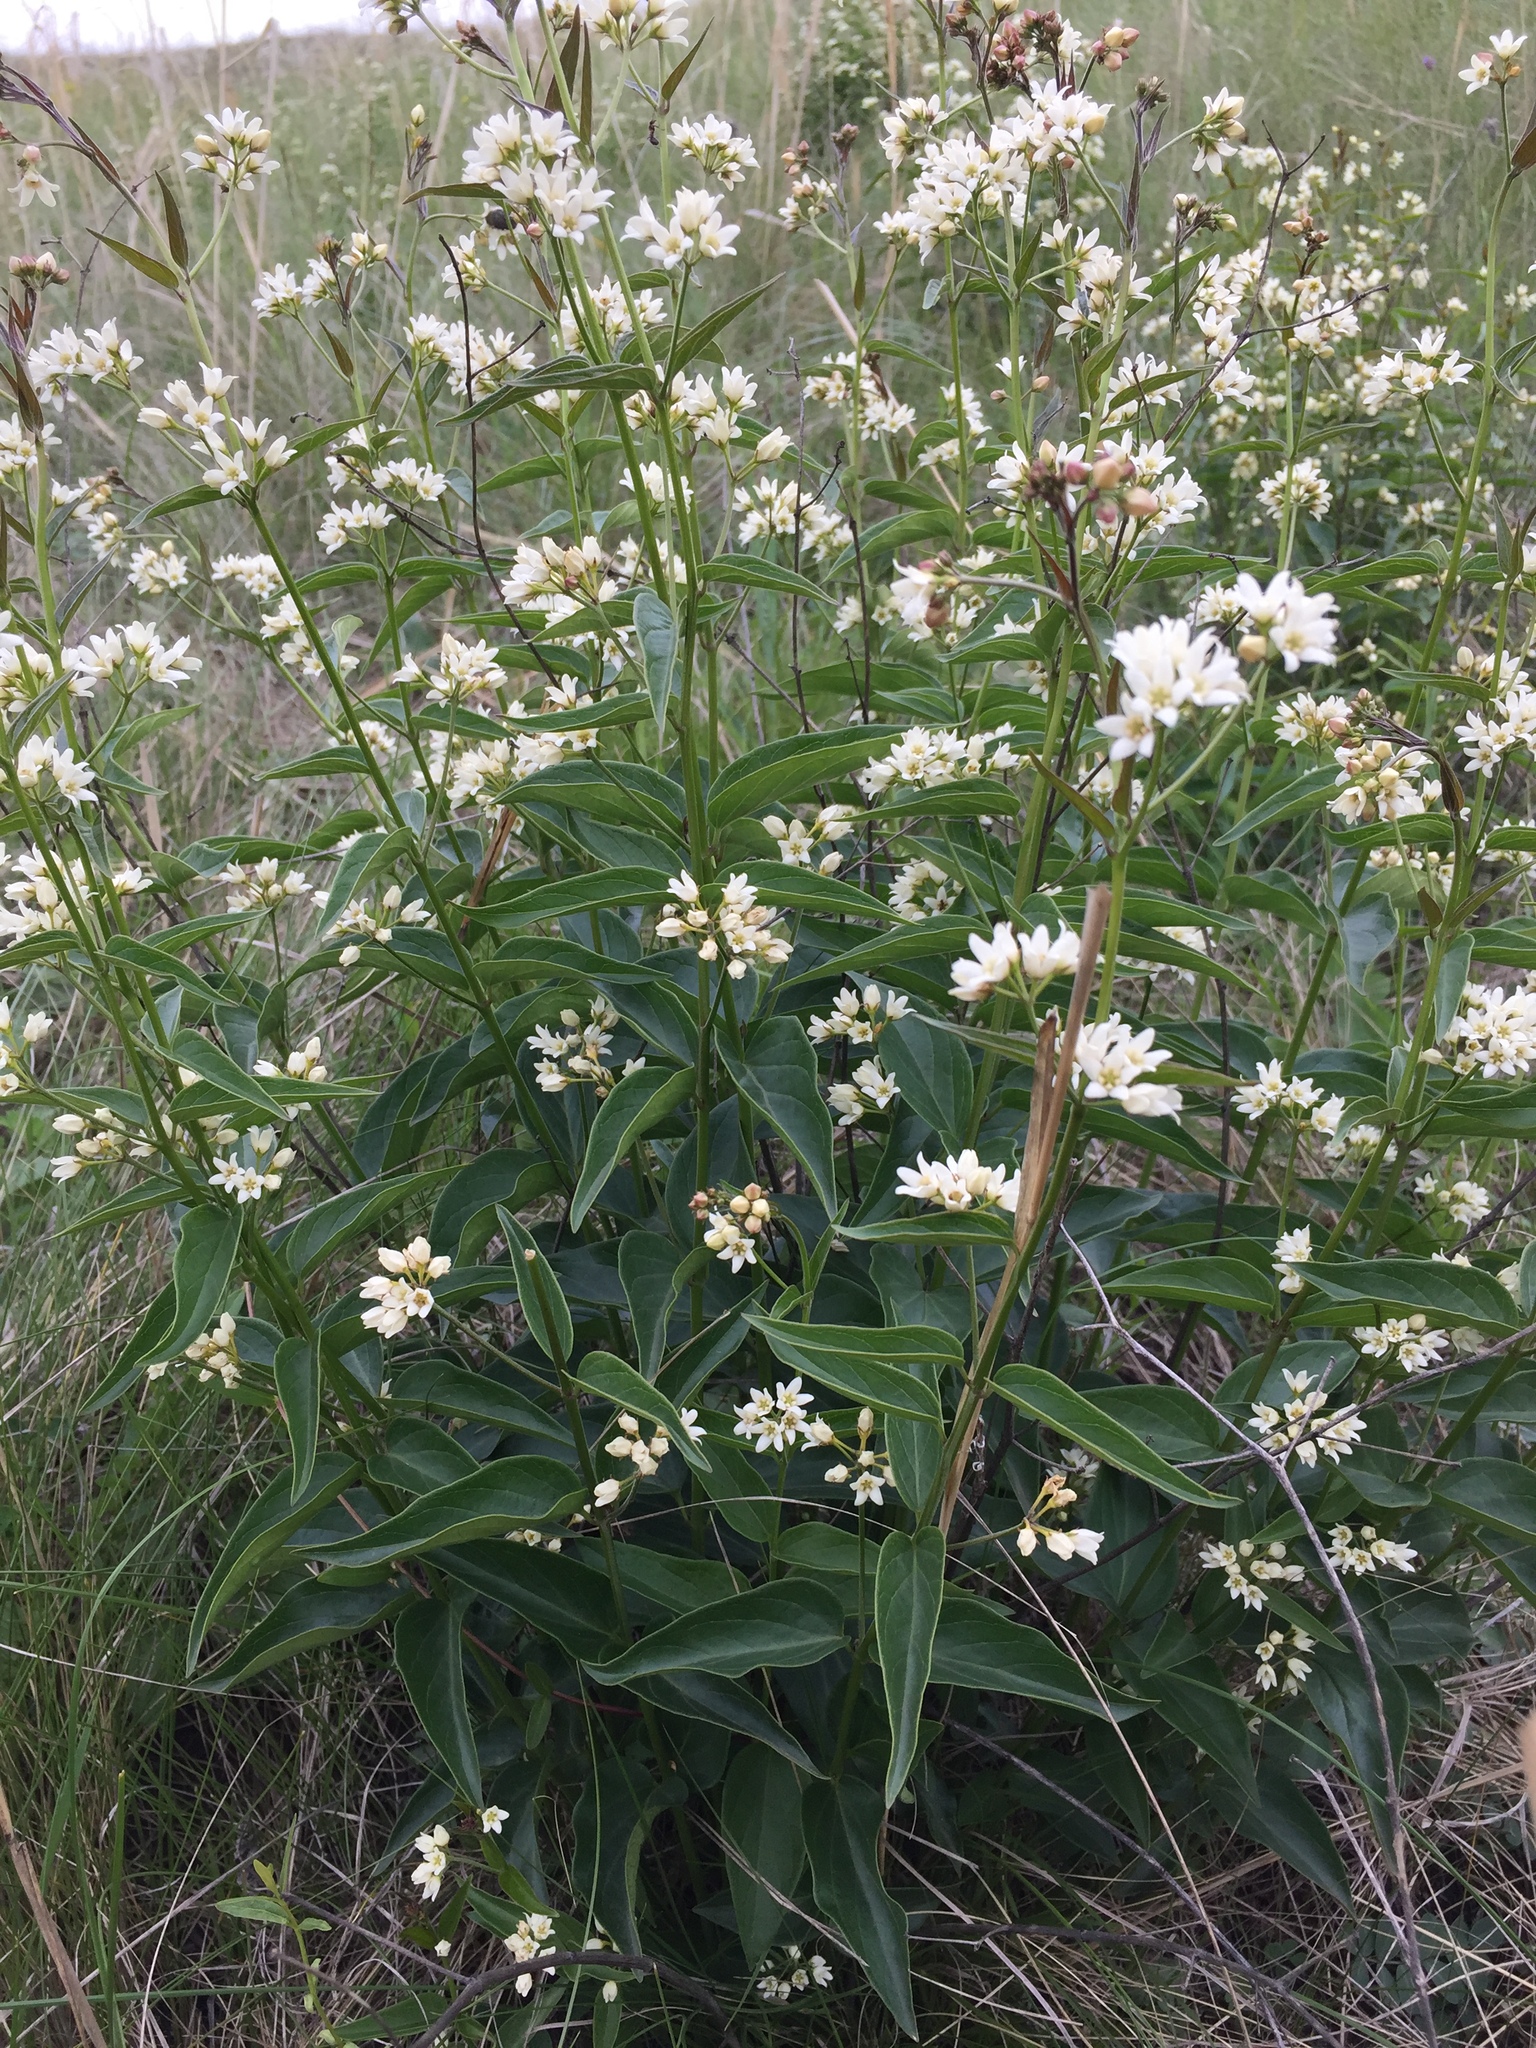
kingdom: Plantae
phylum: Tracheophyta
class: Magnoliopsida
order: Gentianales
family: Apocynaceae
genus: Vincetoxicum
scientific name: Vincetoxicum hirundinaria
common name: White swallowwort
